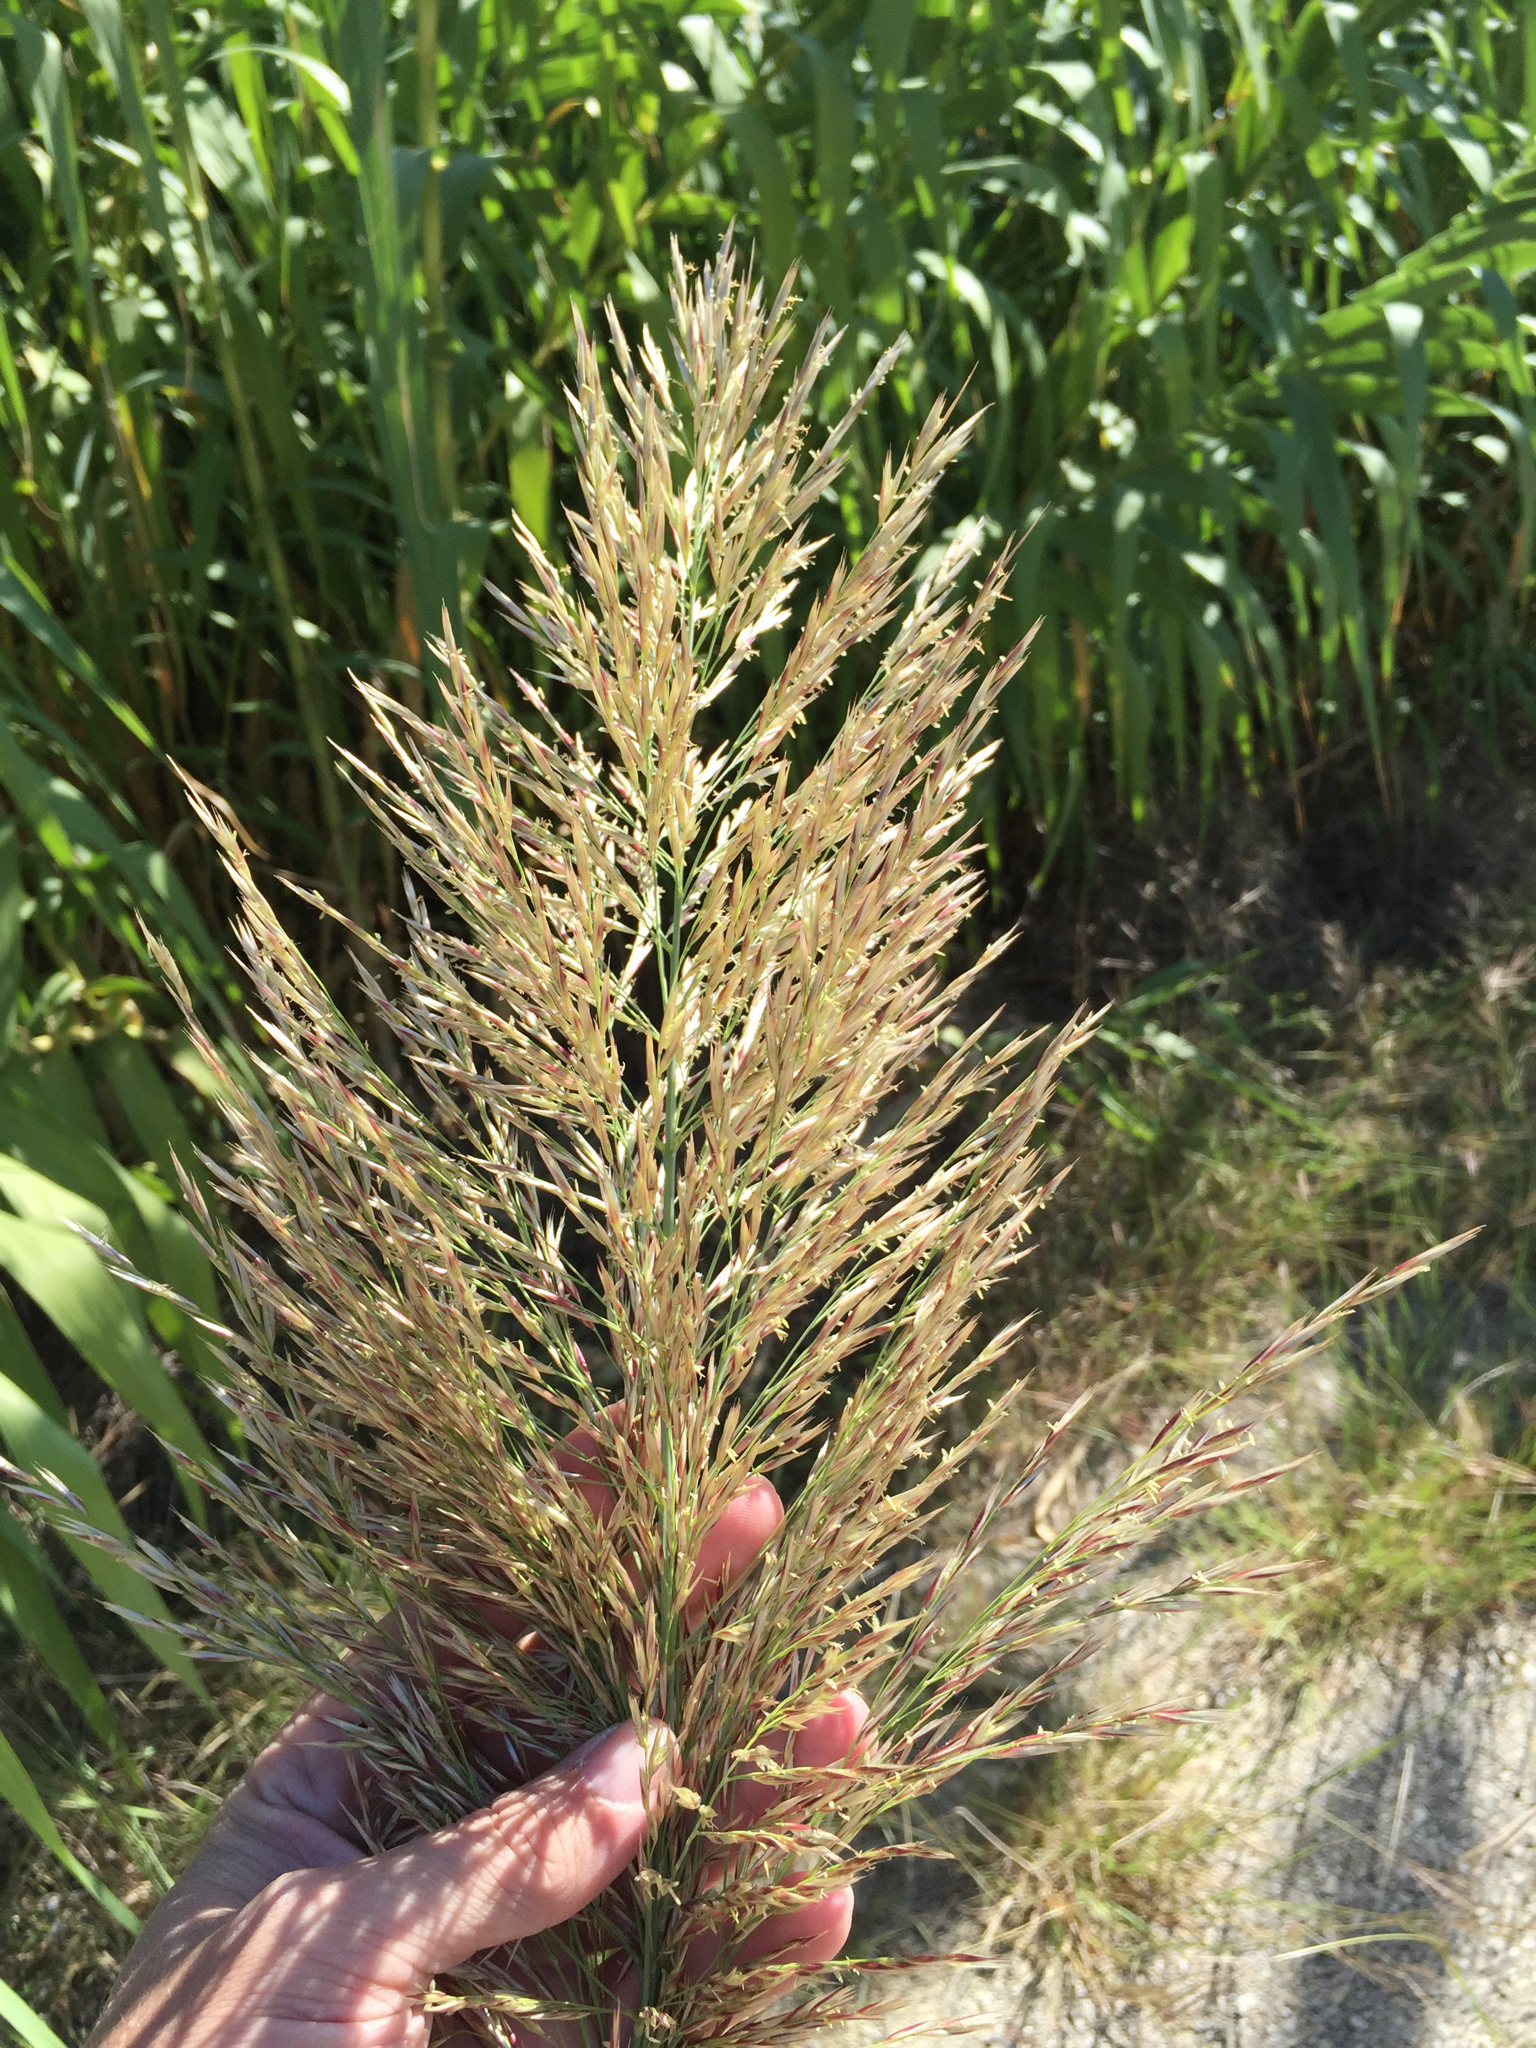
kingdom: Plantae
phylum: Tracheophyta
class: Liliopsida
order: Poales
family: Poaceae
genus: Arundo
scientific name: Arundo donax
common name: Giant reed
